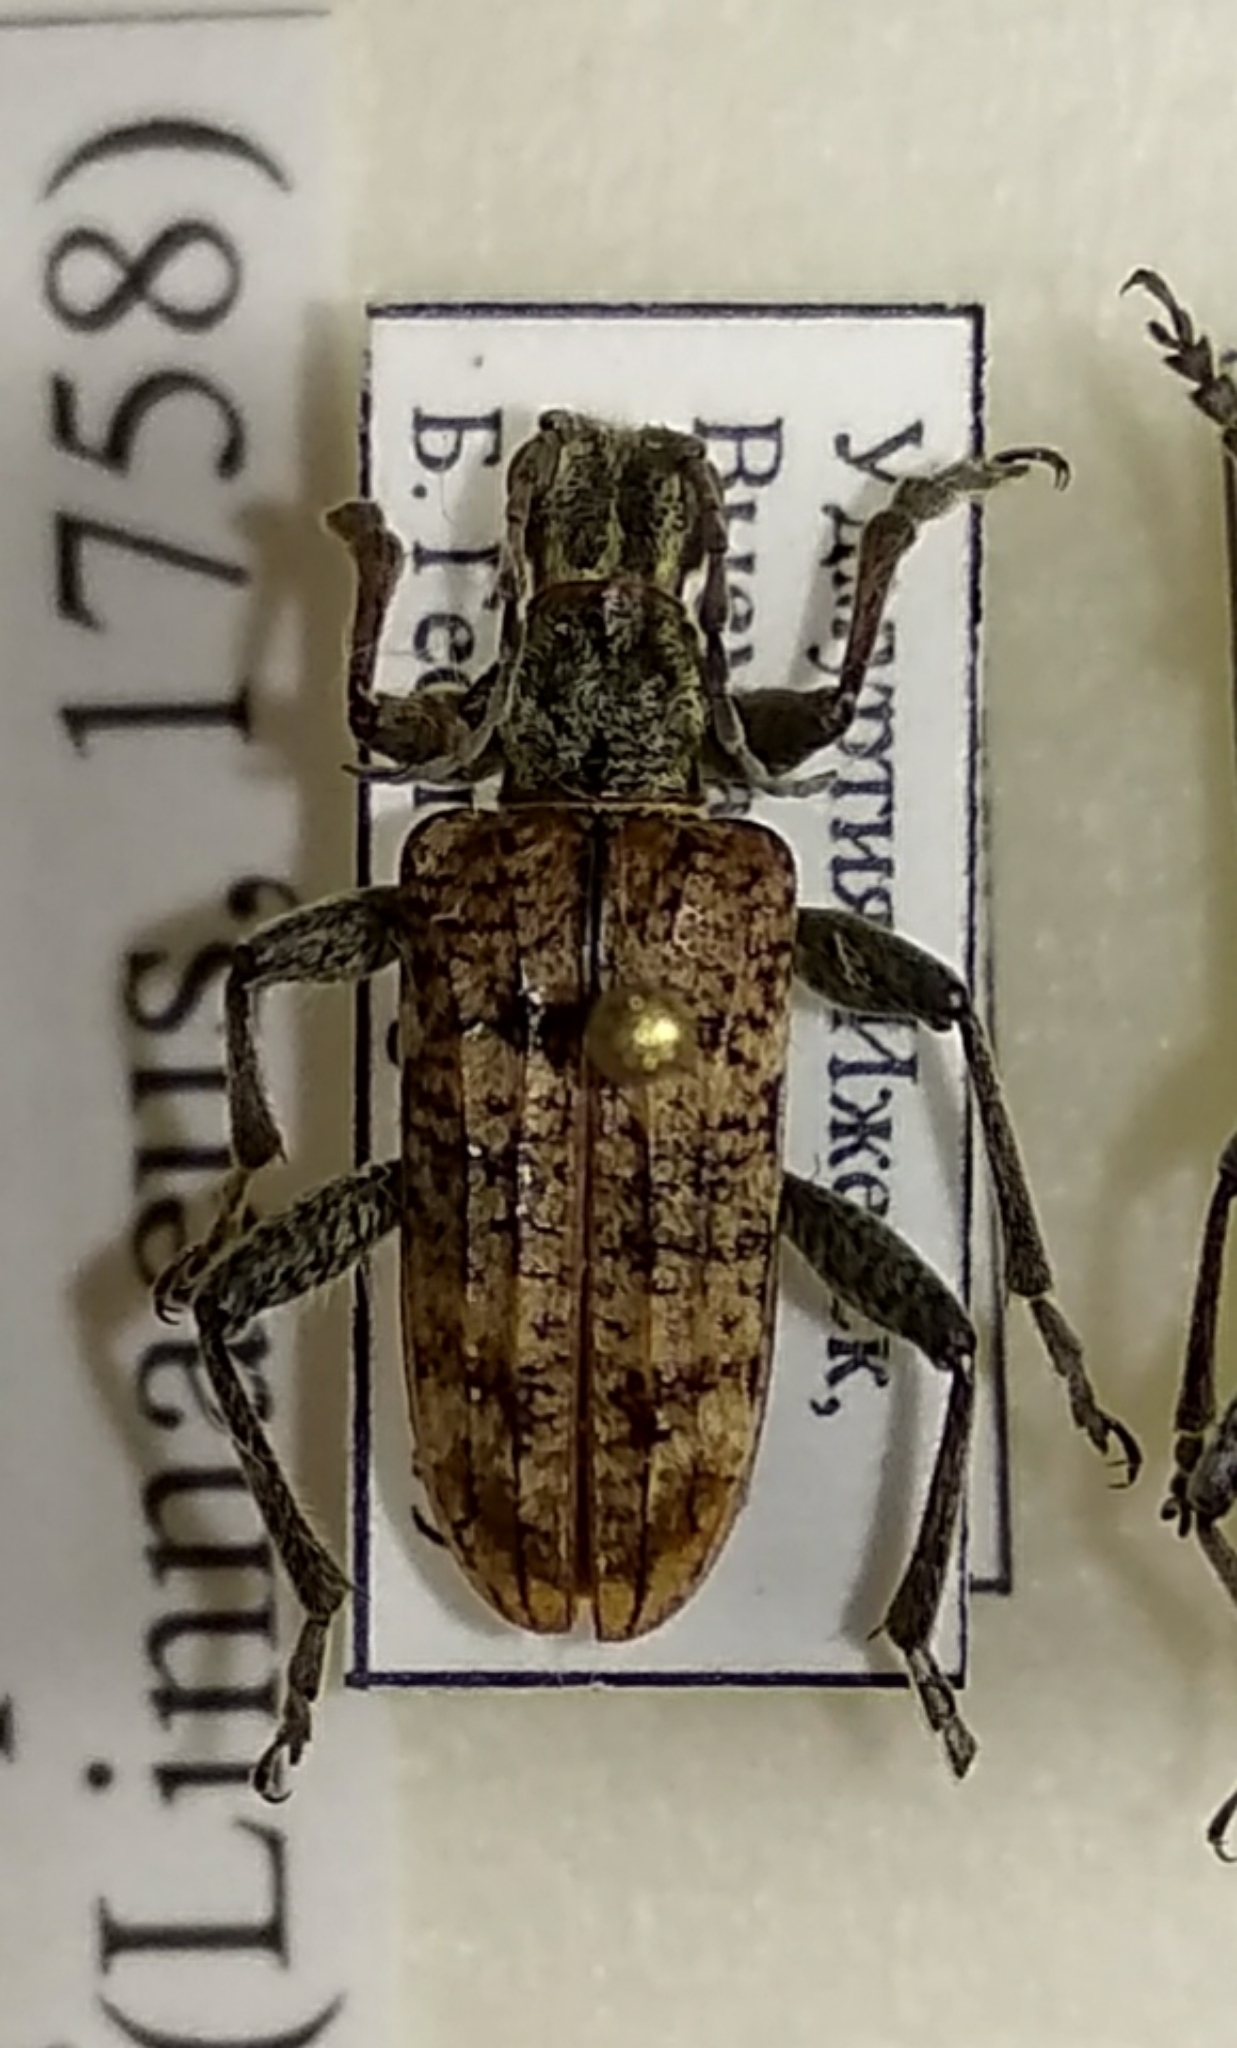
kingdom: Animalia
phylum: Arthropoda
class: Insecta
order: Coleoptera
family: Cerambycidae
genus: Rhagium
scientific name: Rhagium inquisitor
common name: Ribbed pine borer
